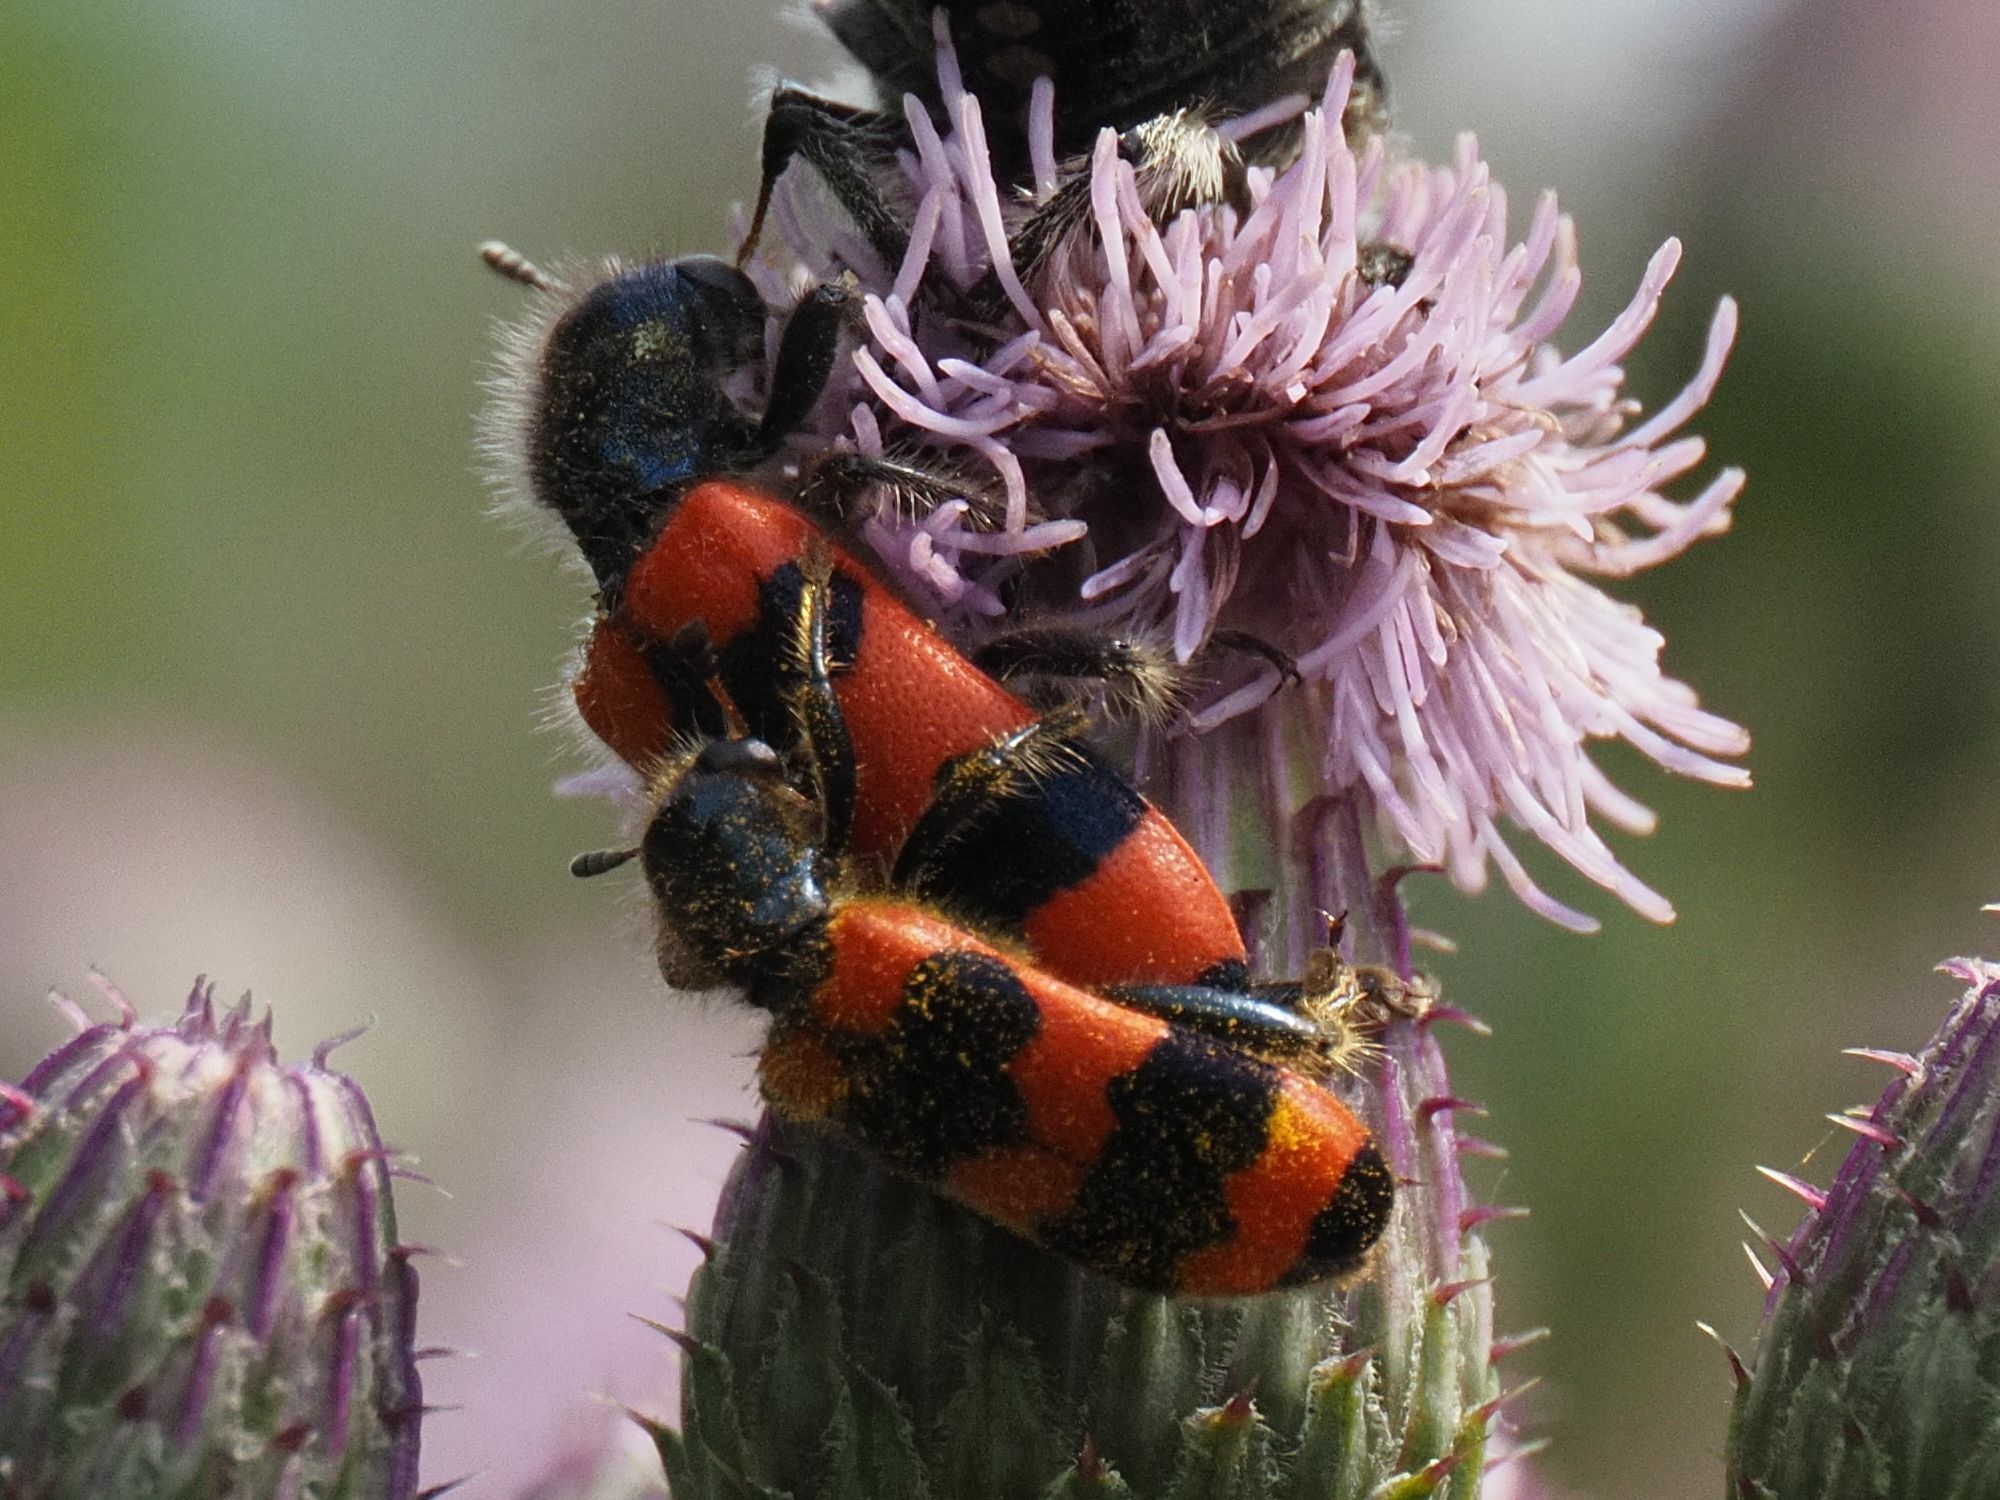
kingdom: Animalia
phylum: Arthropoda
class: Insecta
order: Coleoptera
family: Cleridae
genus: Trichodes
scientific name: Trichodes apiarius
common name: Bee-eating beetle
